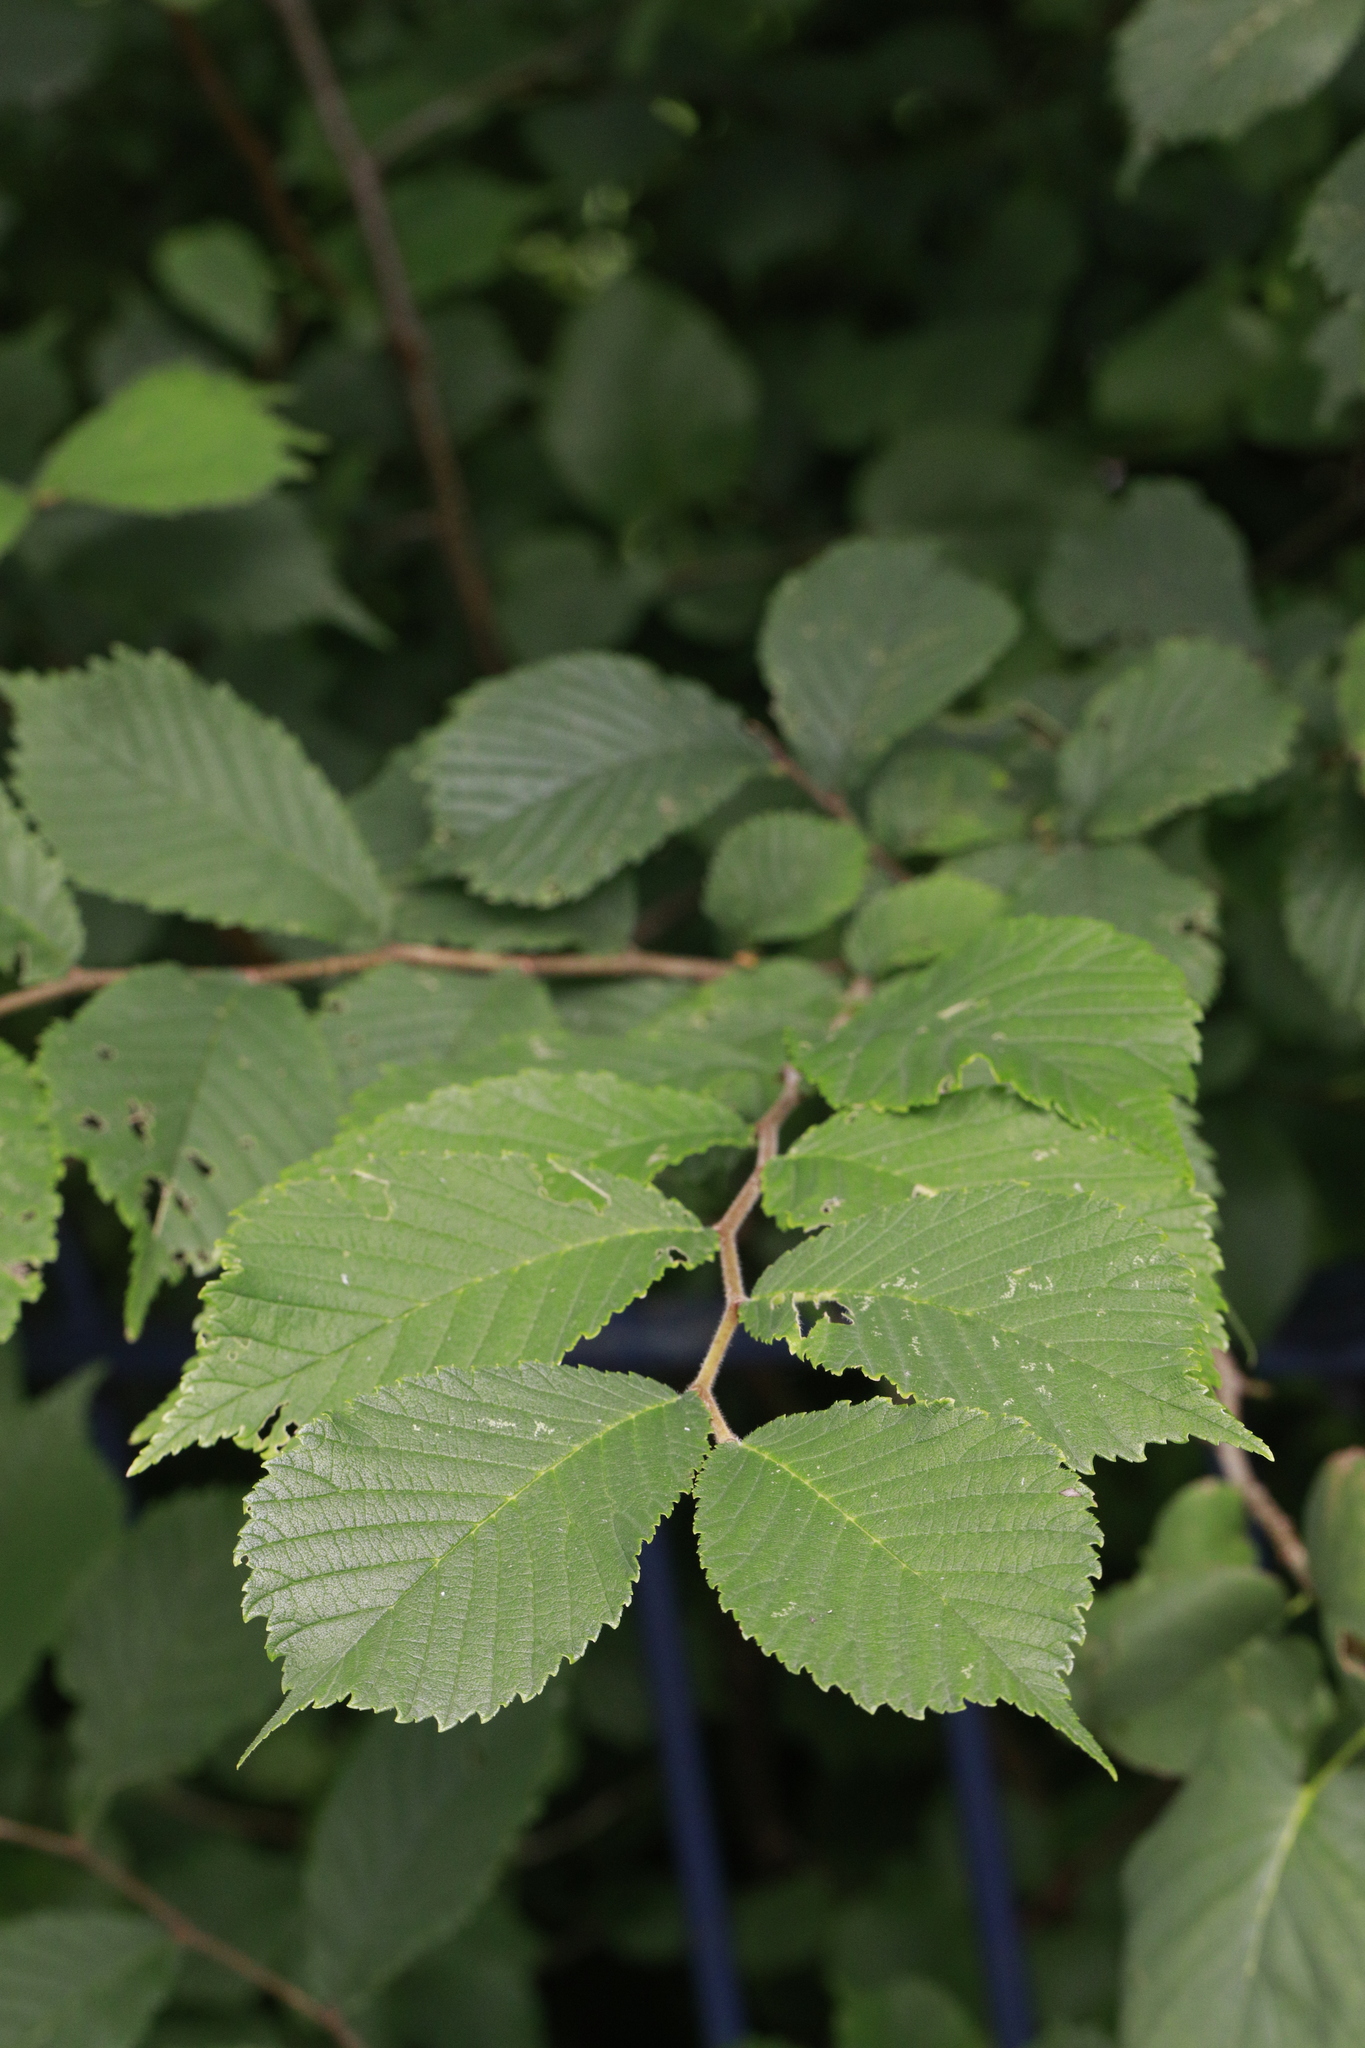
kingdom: Plantae
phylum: Tracheophyta
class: Magnoliopsida
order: Rosales
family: Ulmaceae
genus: Ulmus
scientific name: Ulmus glabra
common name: Wych elm
